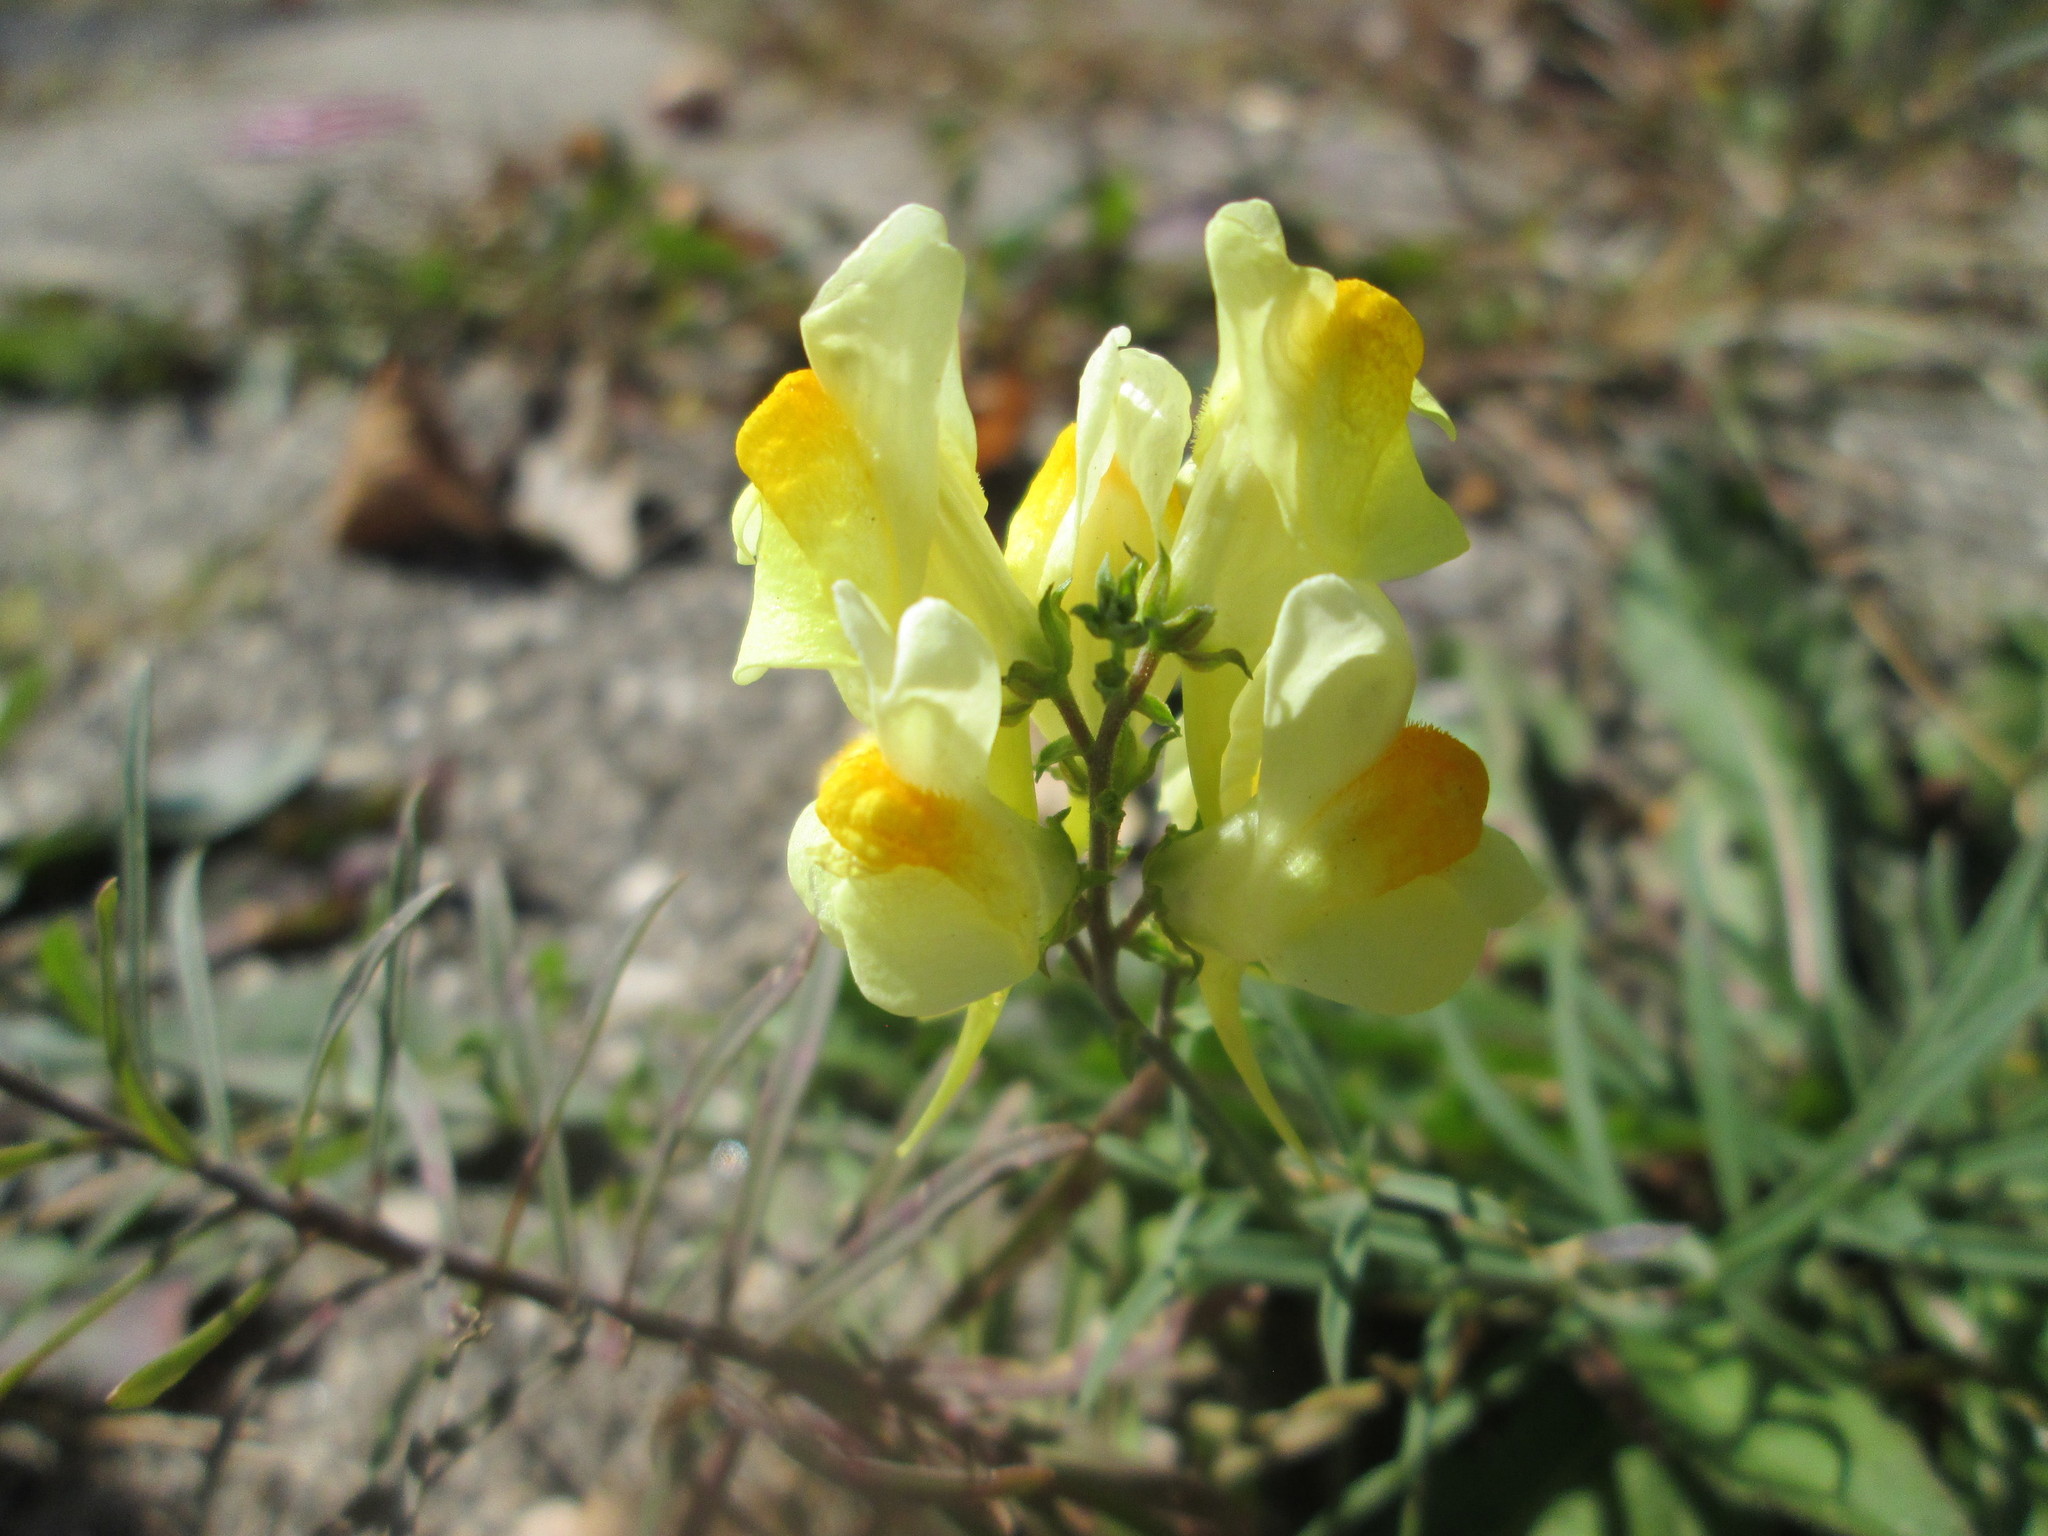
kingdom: Plantae
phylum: Tracheophyta
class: Magnoliopsida
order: Lamiales
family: Plantaginaceae
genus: Linaria
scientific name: Linaria vulgaris
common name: Butter and eggs
